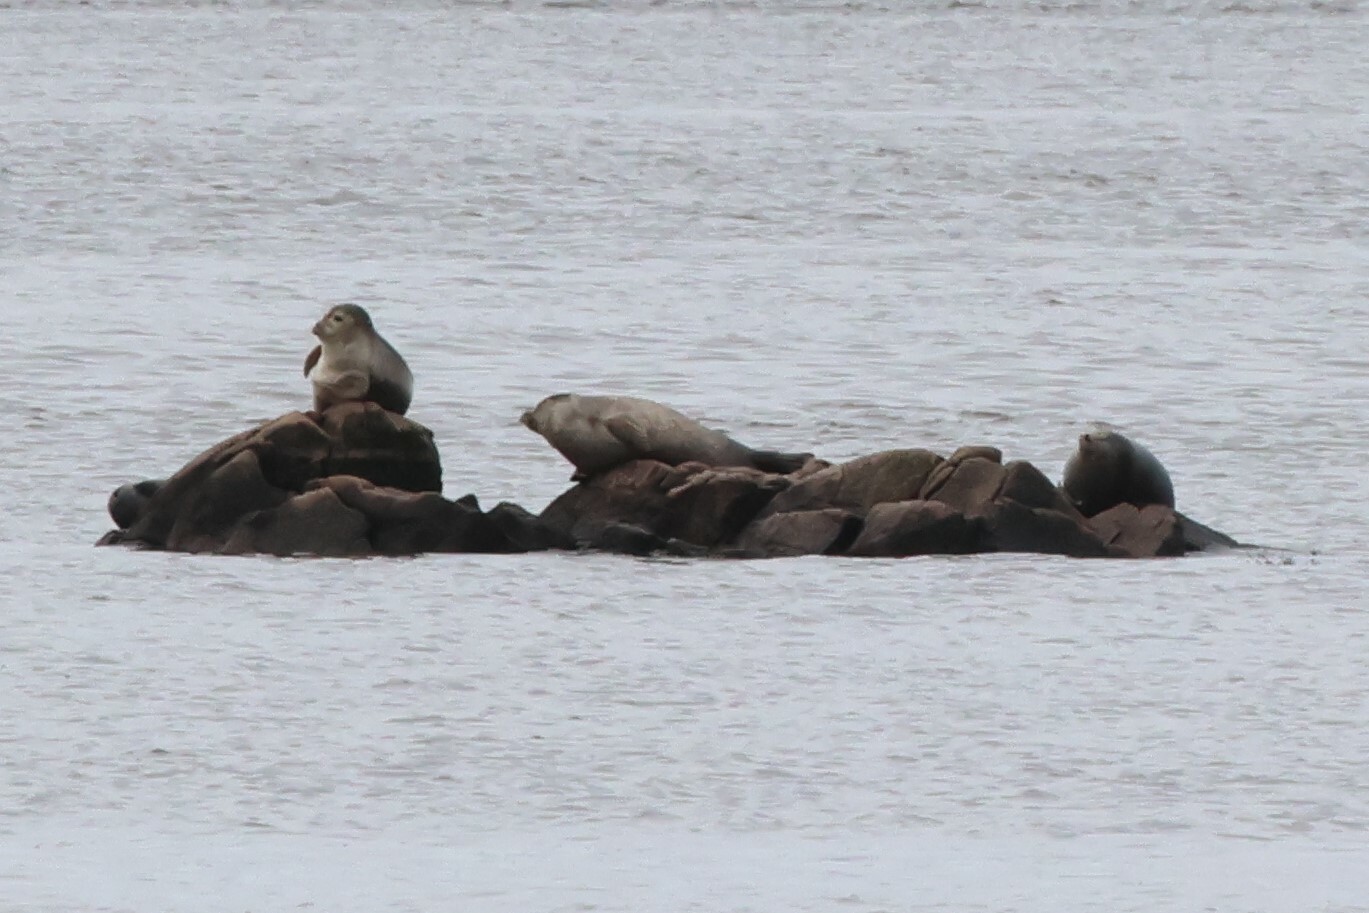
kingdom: Animalia
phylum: Chordata
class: Mammalia
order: Carnivora
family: Phocidae
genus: Phoca
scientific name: Phoca vitulina
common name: Harbor seal
